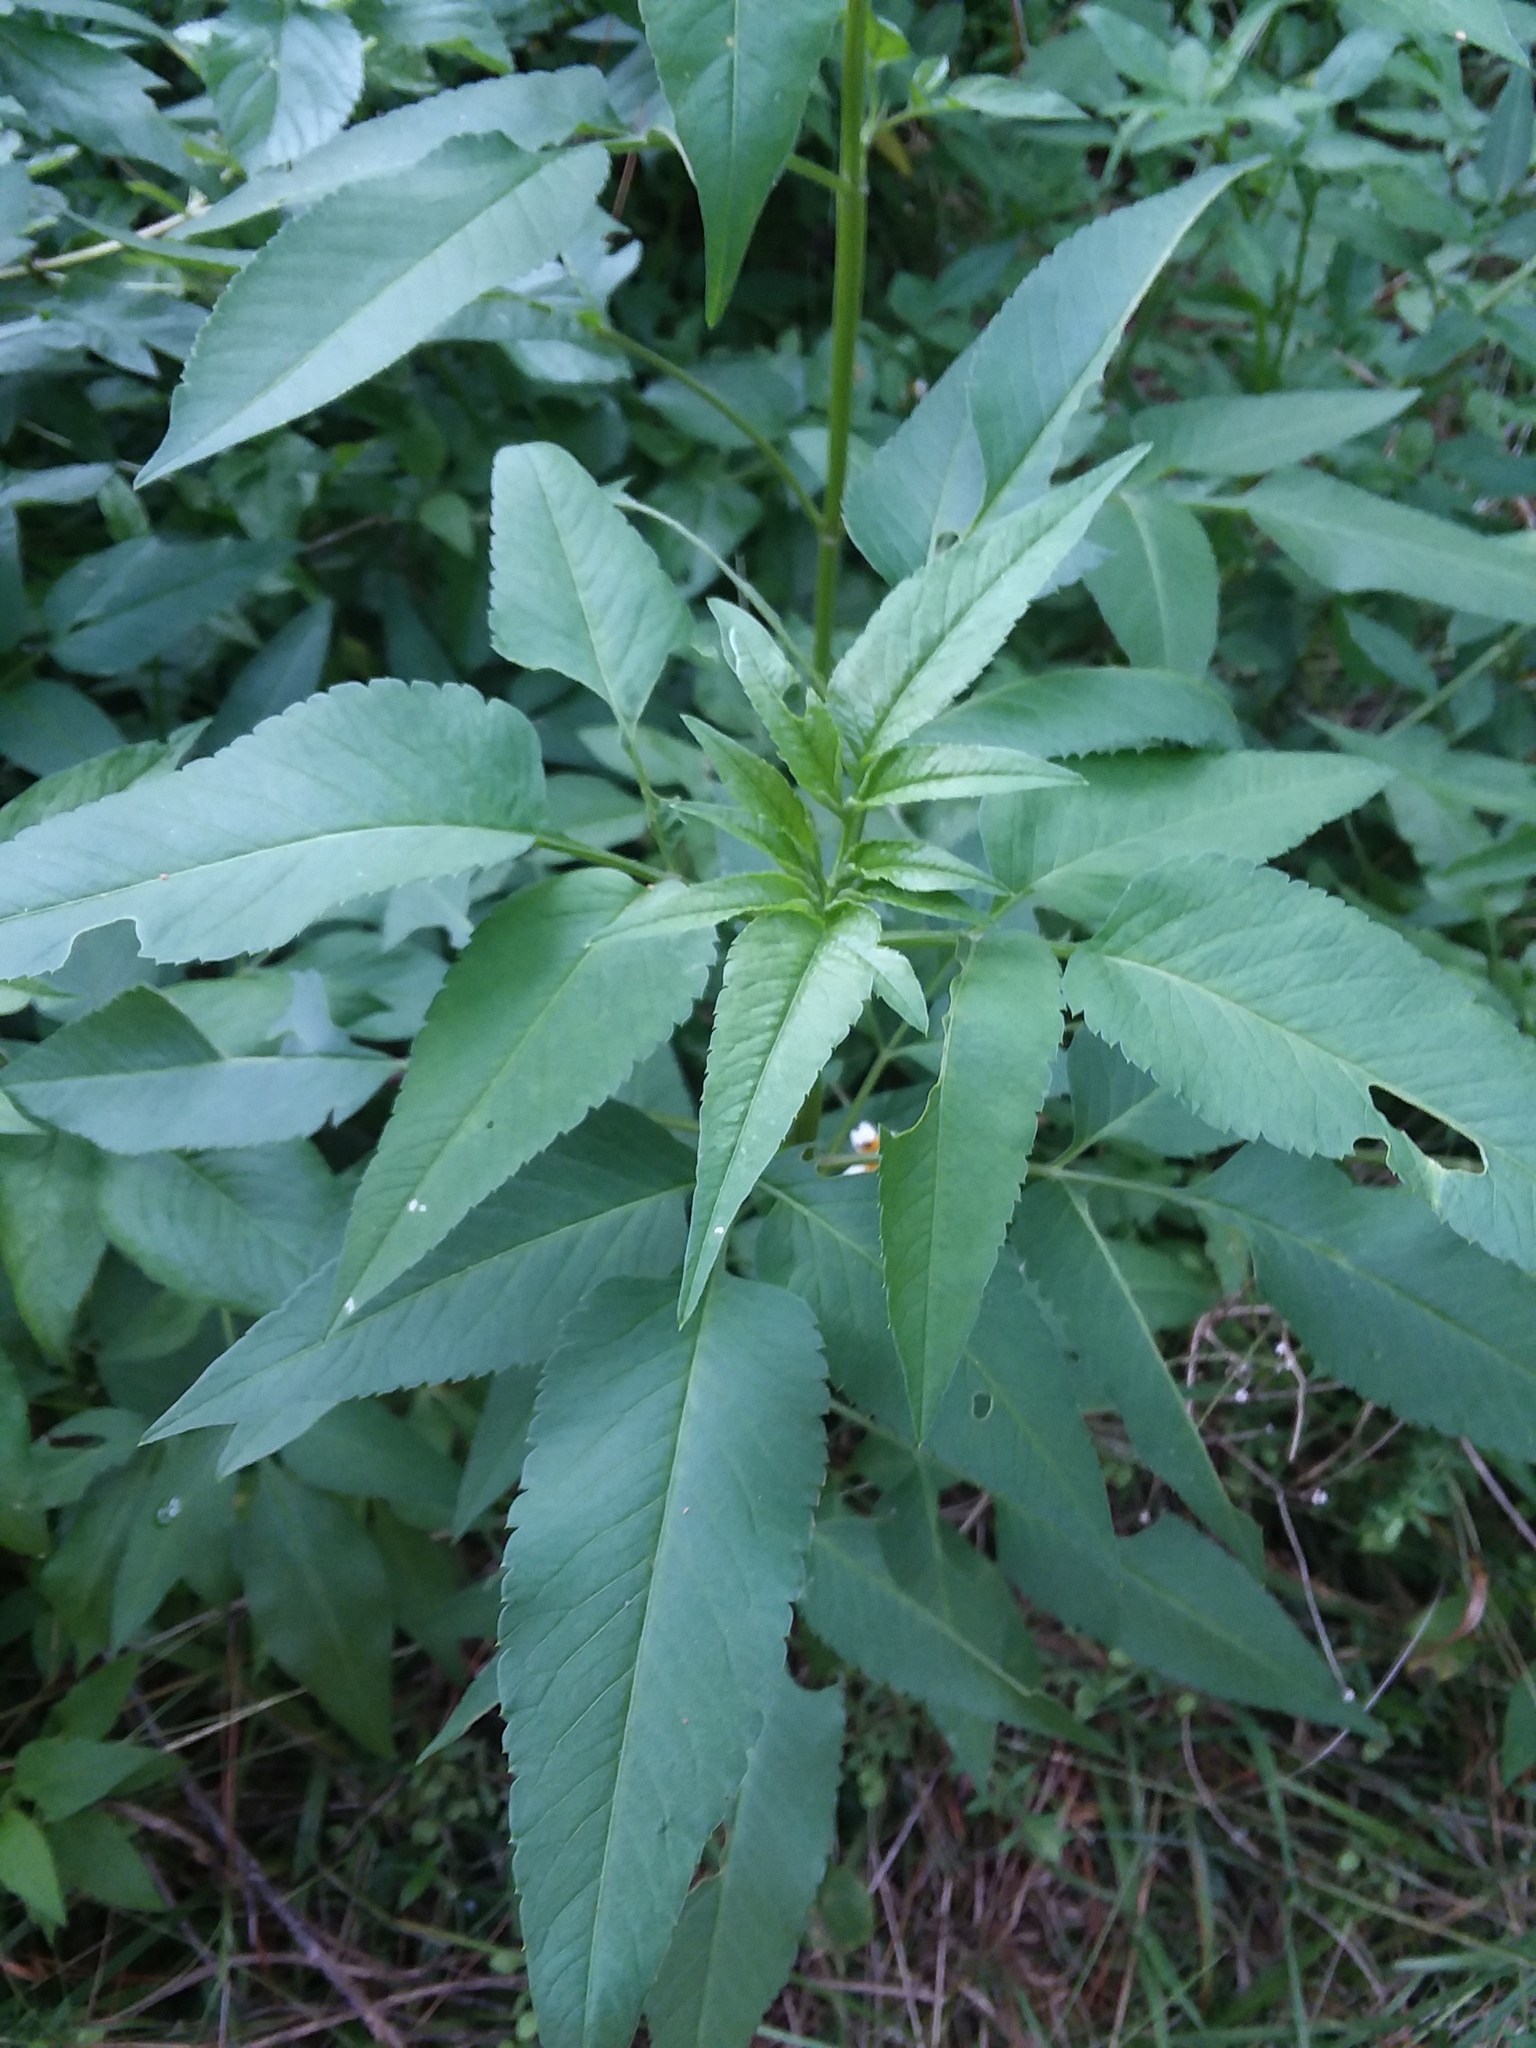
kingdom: Plantae
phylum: Tracheophyta
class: Magnoliopsida
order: Asterales
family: Asteraceae
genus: Bidens
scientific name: Bidens alba
